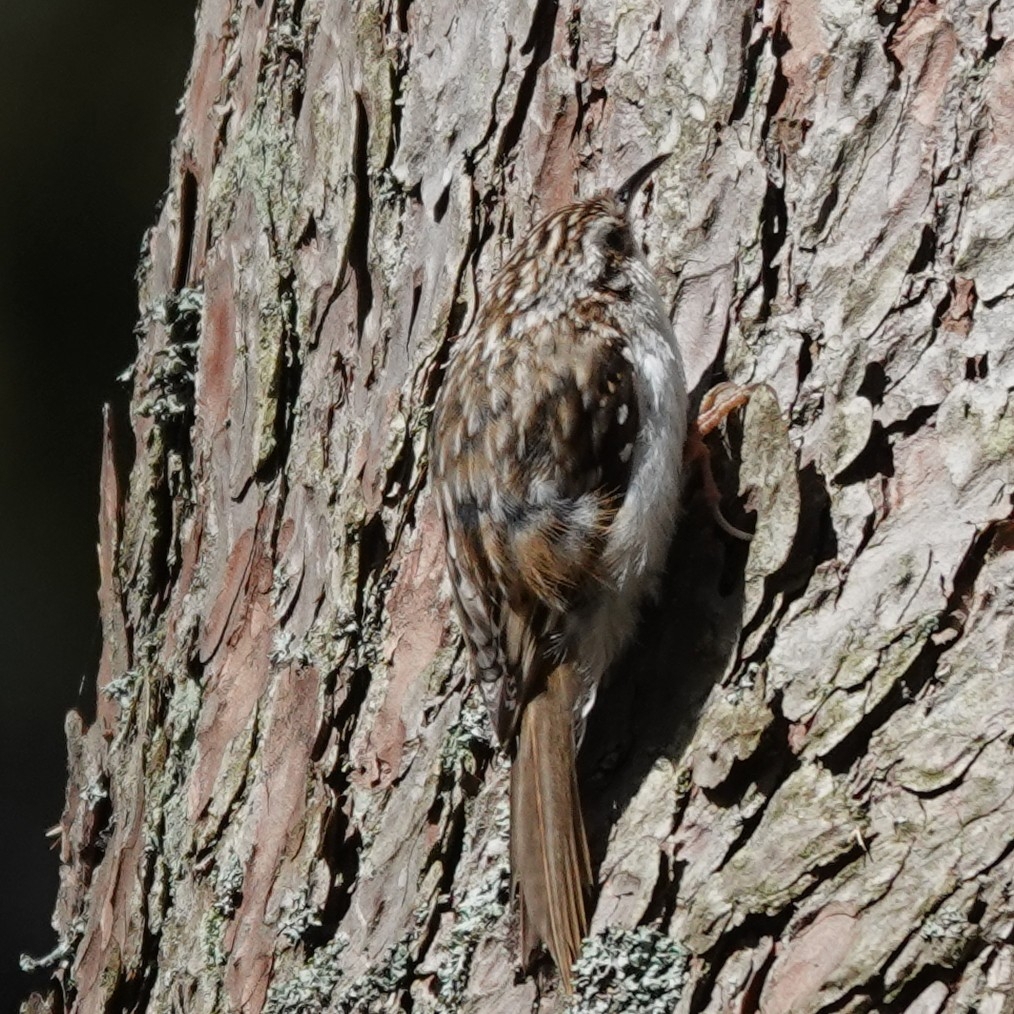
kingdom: Animalia
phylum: Chordata
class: Aves
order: Passeriformes
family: Certhiidae
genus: Certhia
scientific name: Certhia familiaris
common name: Eurasian treecreeper
